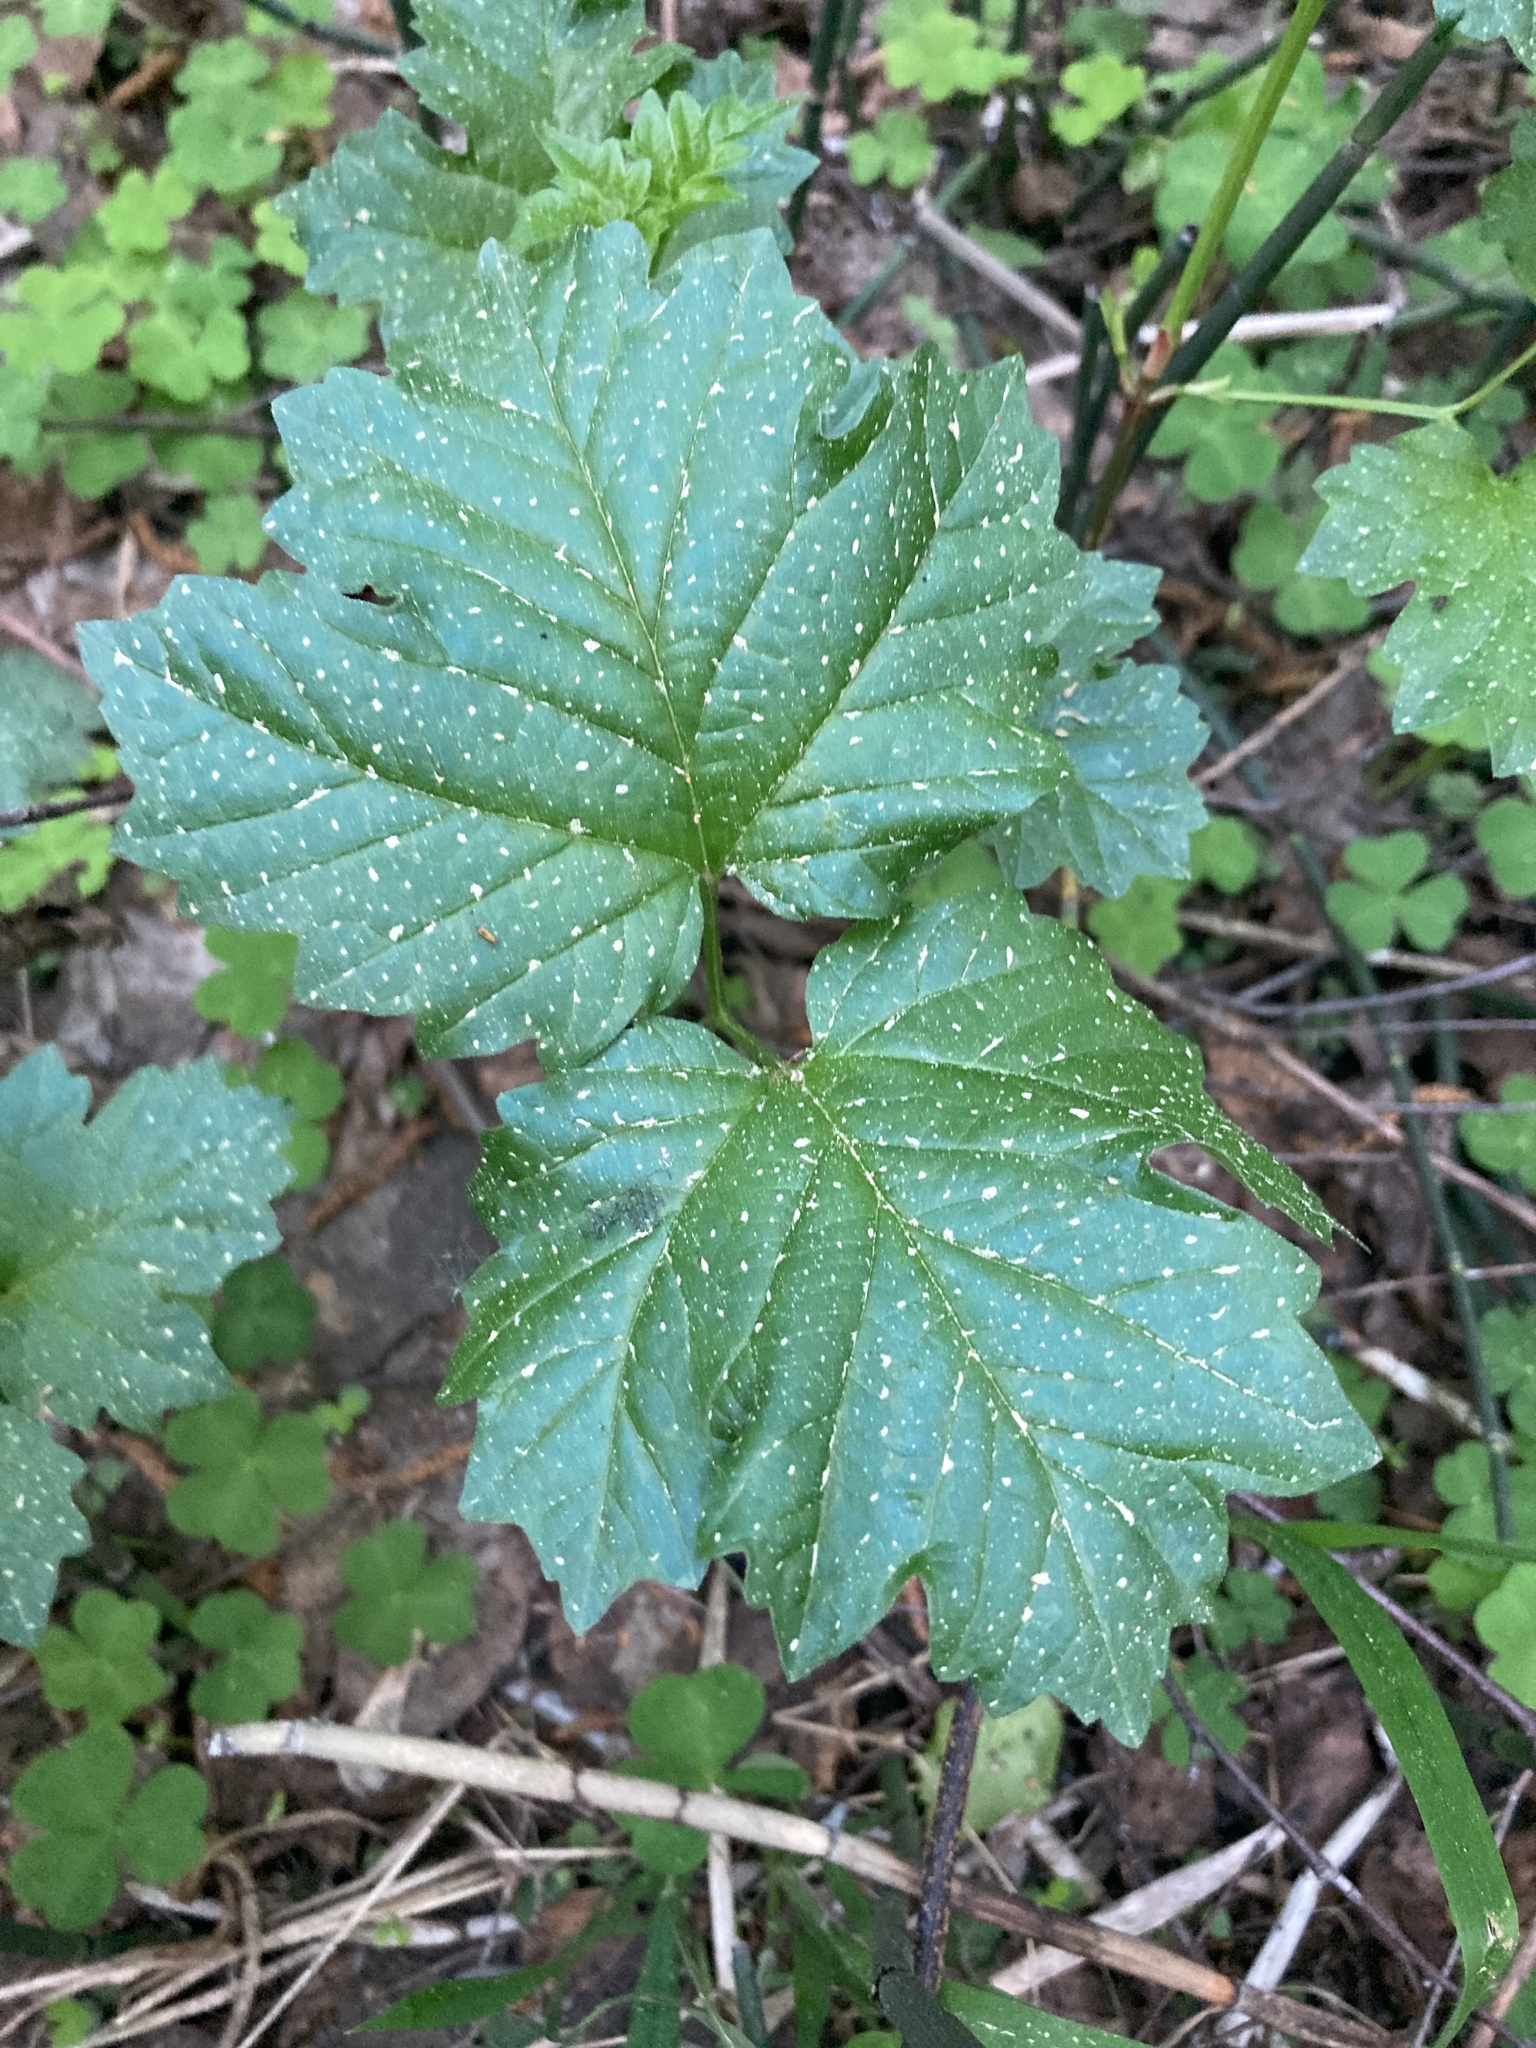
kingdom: Plantae
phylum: Tracheophyta
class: Magnoliopsida
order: Dipsacales
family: Viburnaceae
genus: Viburnum
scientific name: Viburnum opulus
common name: Guelder-rose
